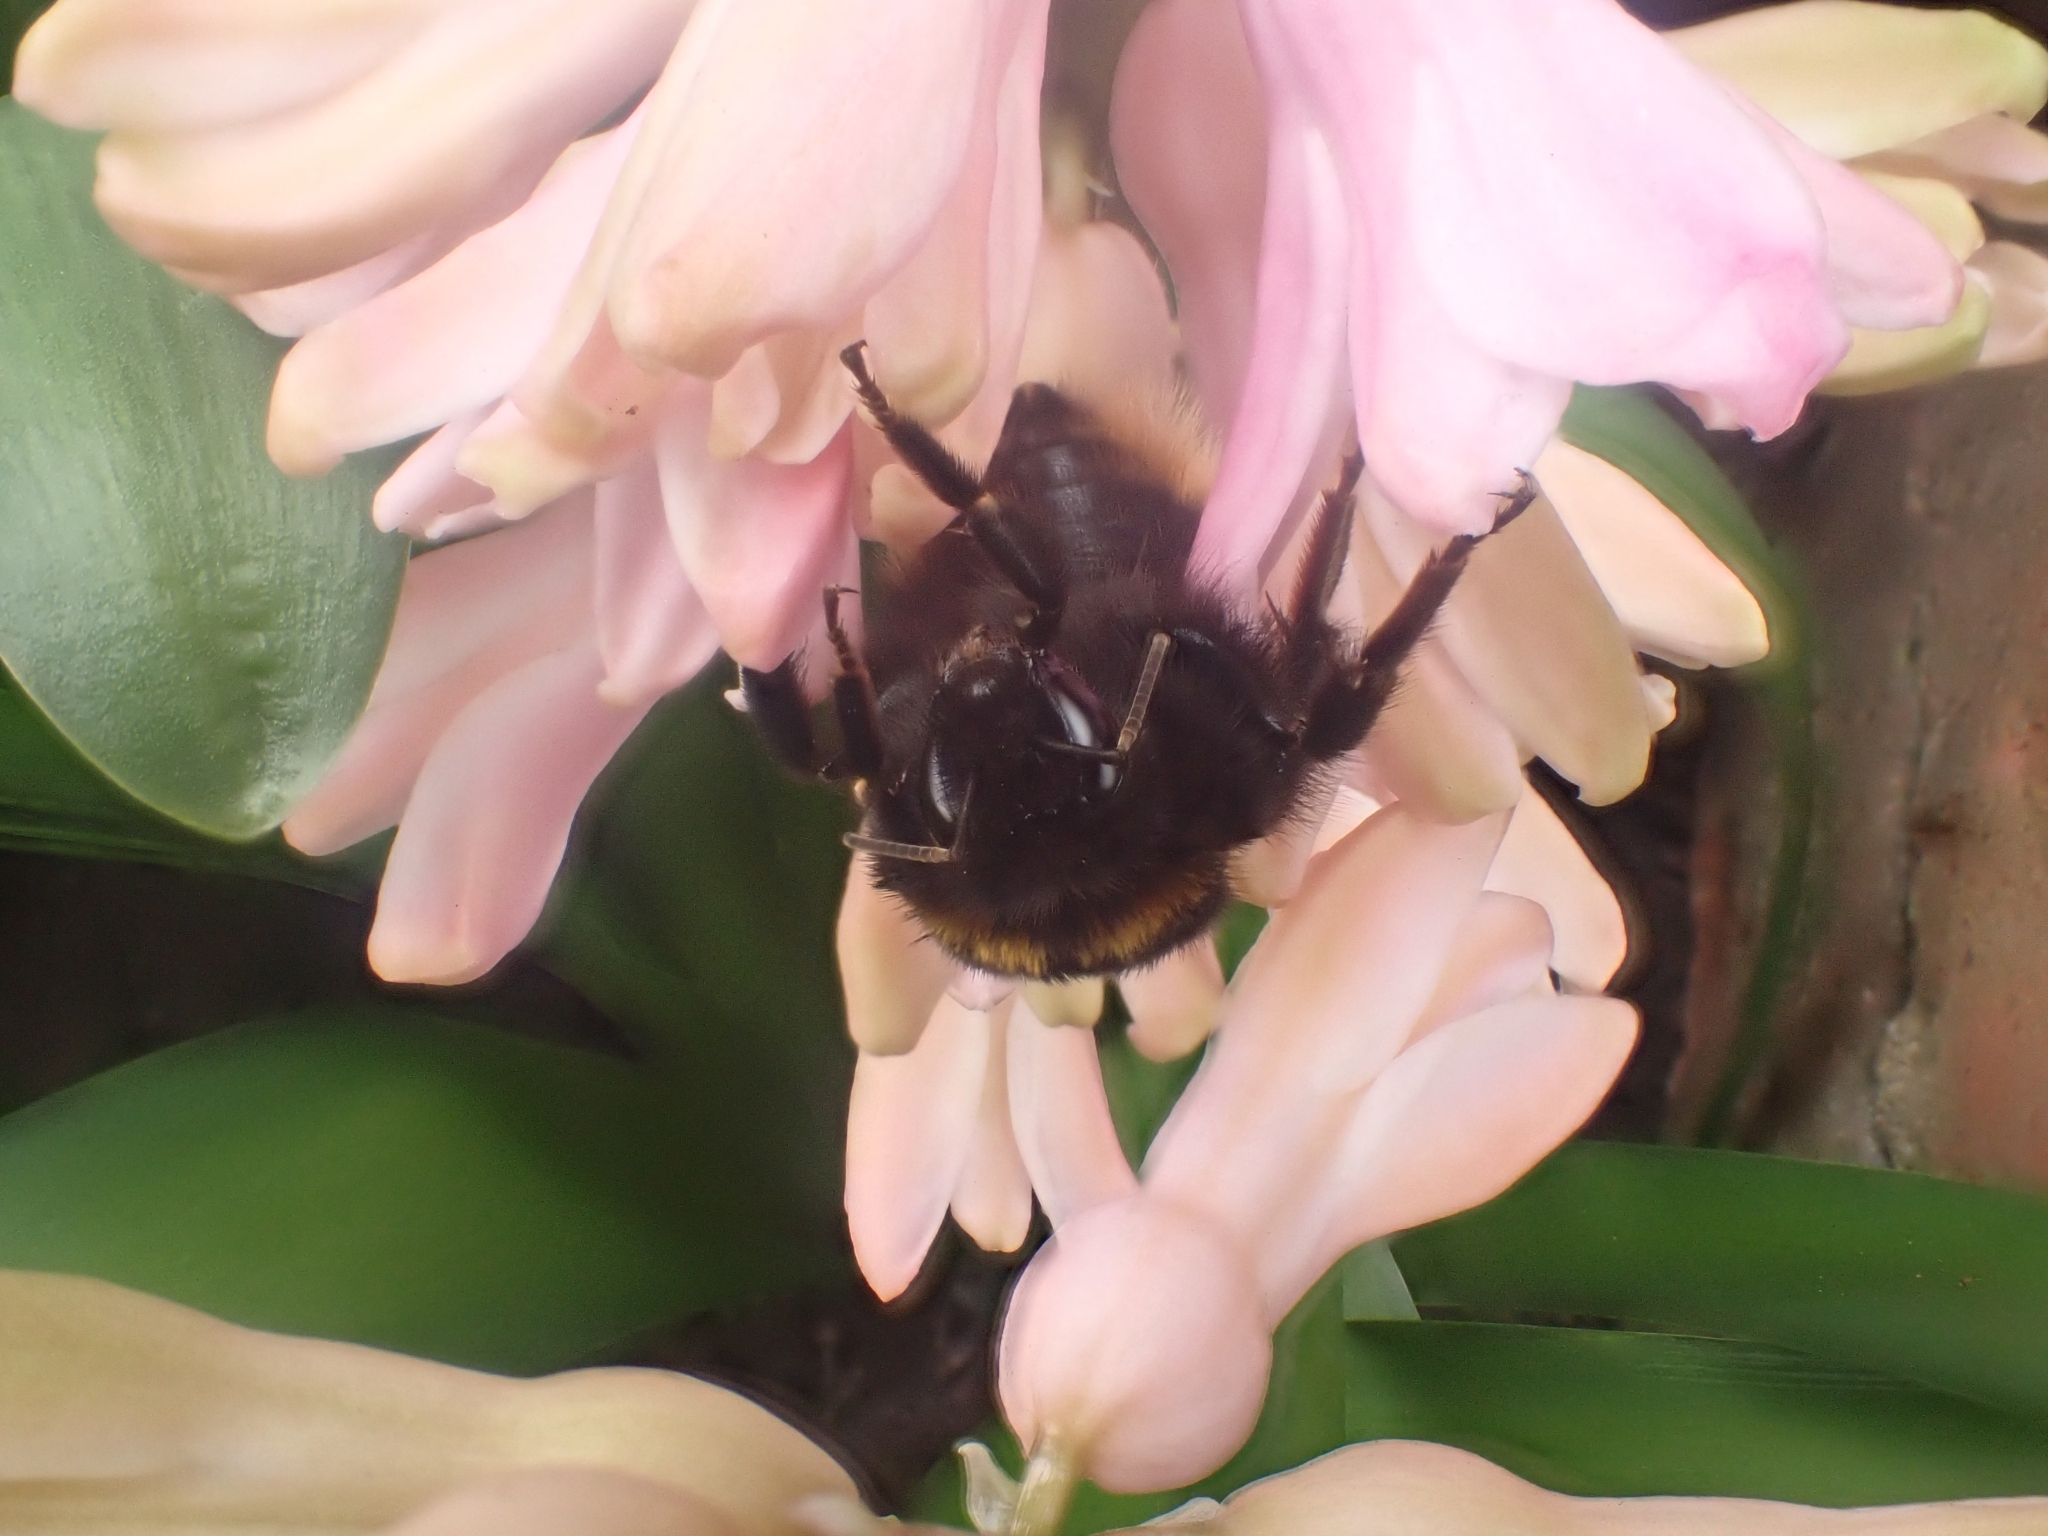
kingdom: Animalia
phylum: Arthropoda
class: Insecta
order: Hymenoptera
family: Apidae
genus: Bombus
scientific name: Bombus terrestris
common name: Buff-tailed bumblebee
